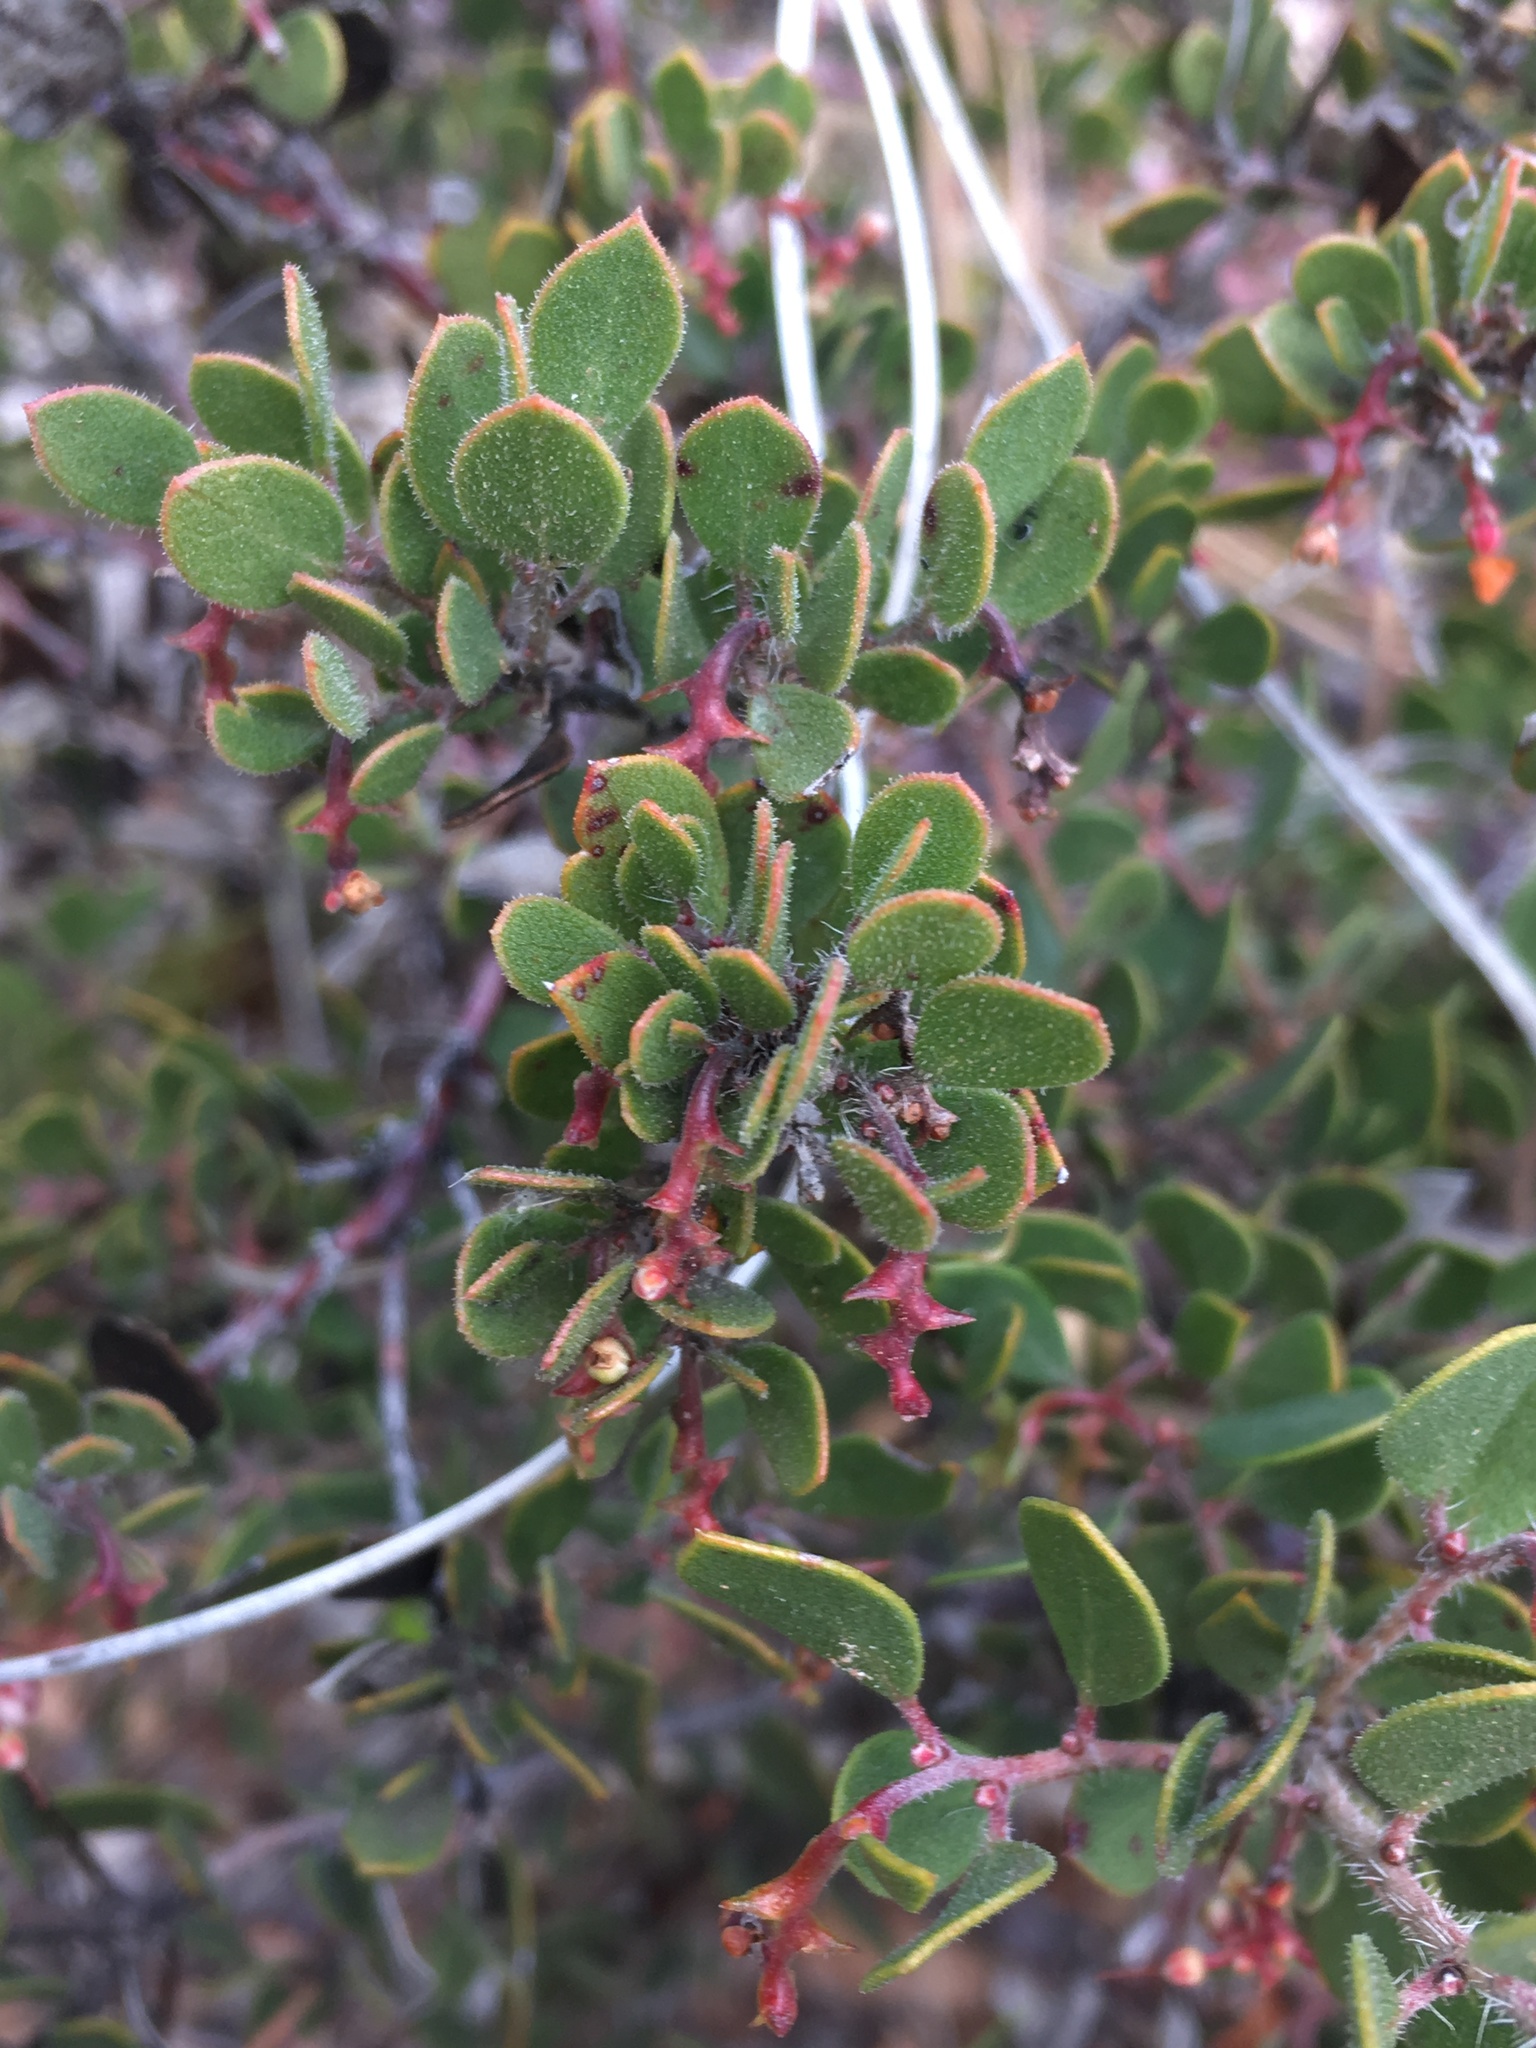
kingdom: Plantae
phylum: Tracheophyta
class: Magnoliopsida
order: Ericales
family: Ericaceae
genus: Arctostaphylos
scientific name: Arctostaphylos myrtifolia
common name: Ione manzanita
